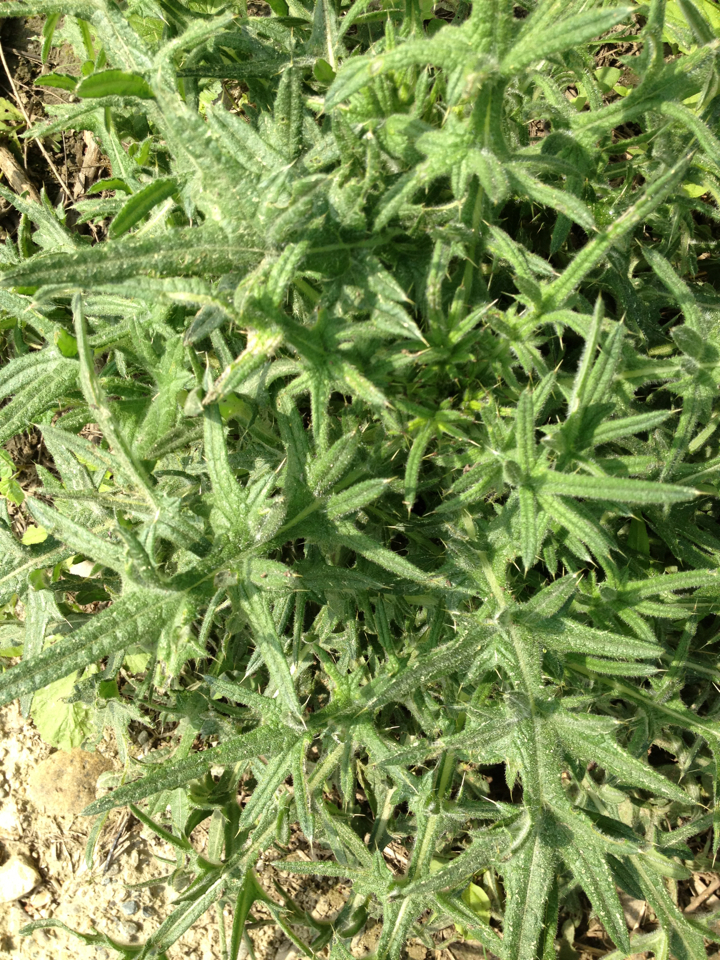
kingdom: Plantae
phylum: Tracheophyta
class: Magnoliopsida
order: Asterales
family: Asteraceae
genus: Cirsium
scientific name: Cirsium vulgare
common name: Bull thistle
